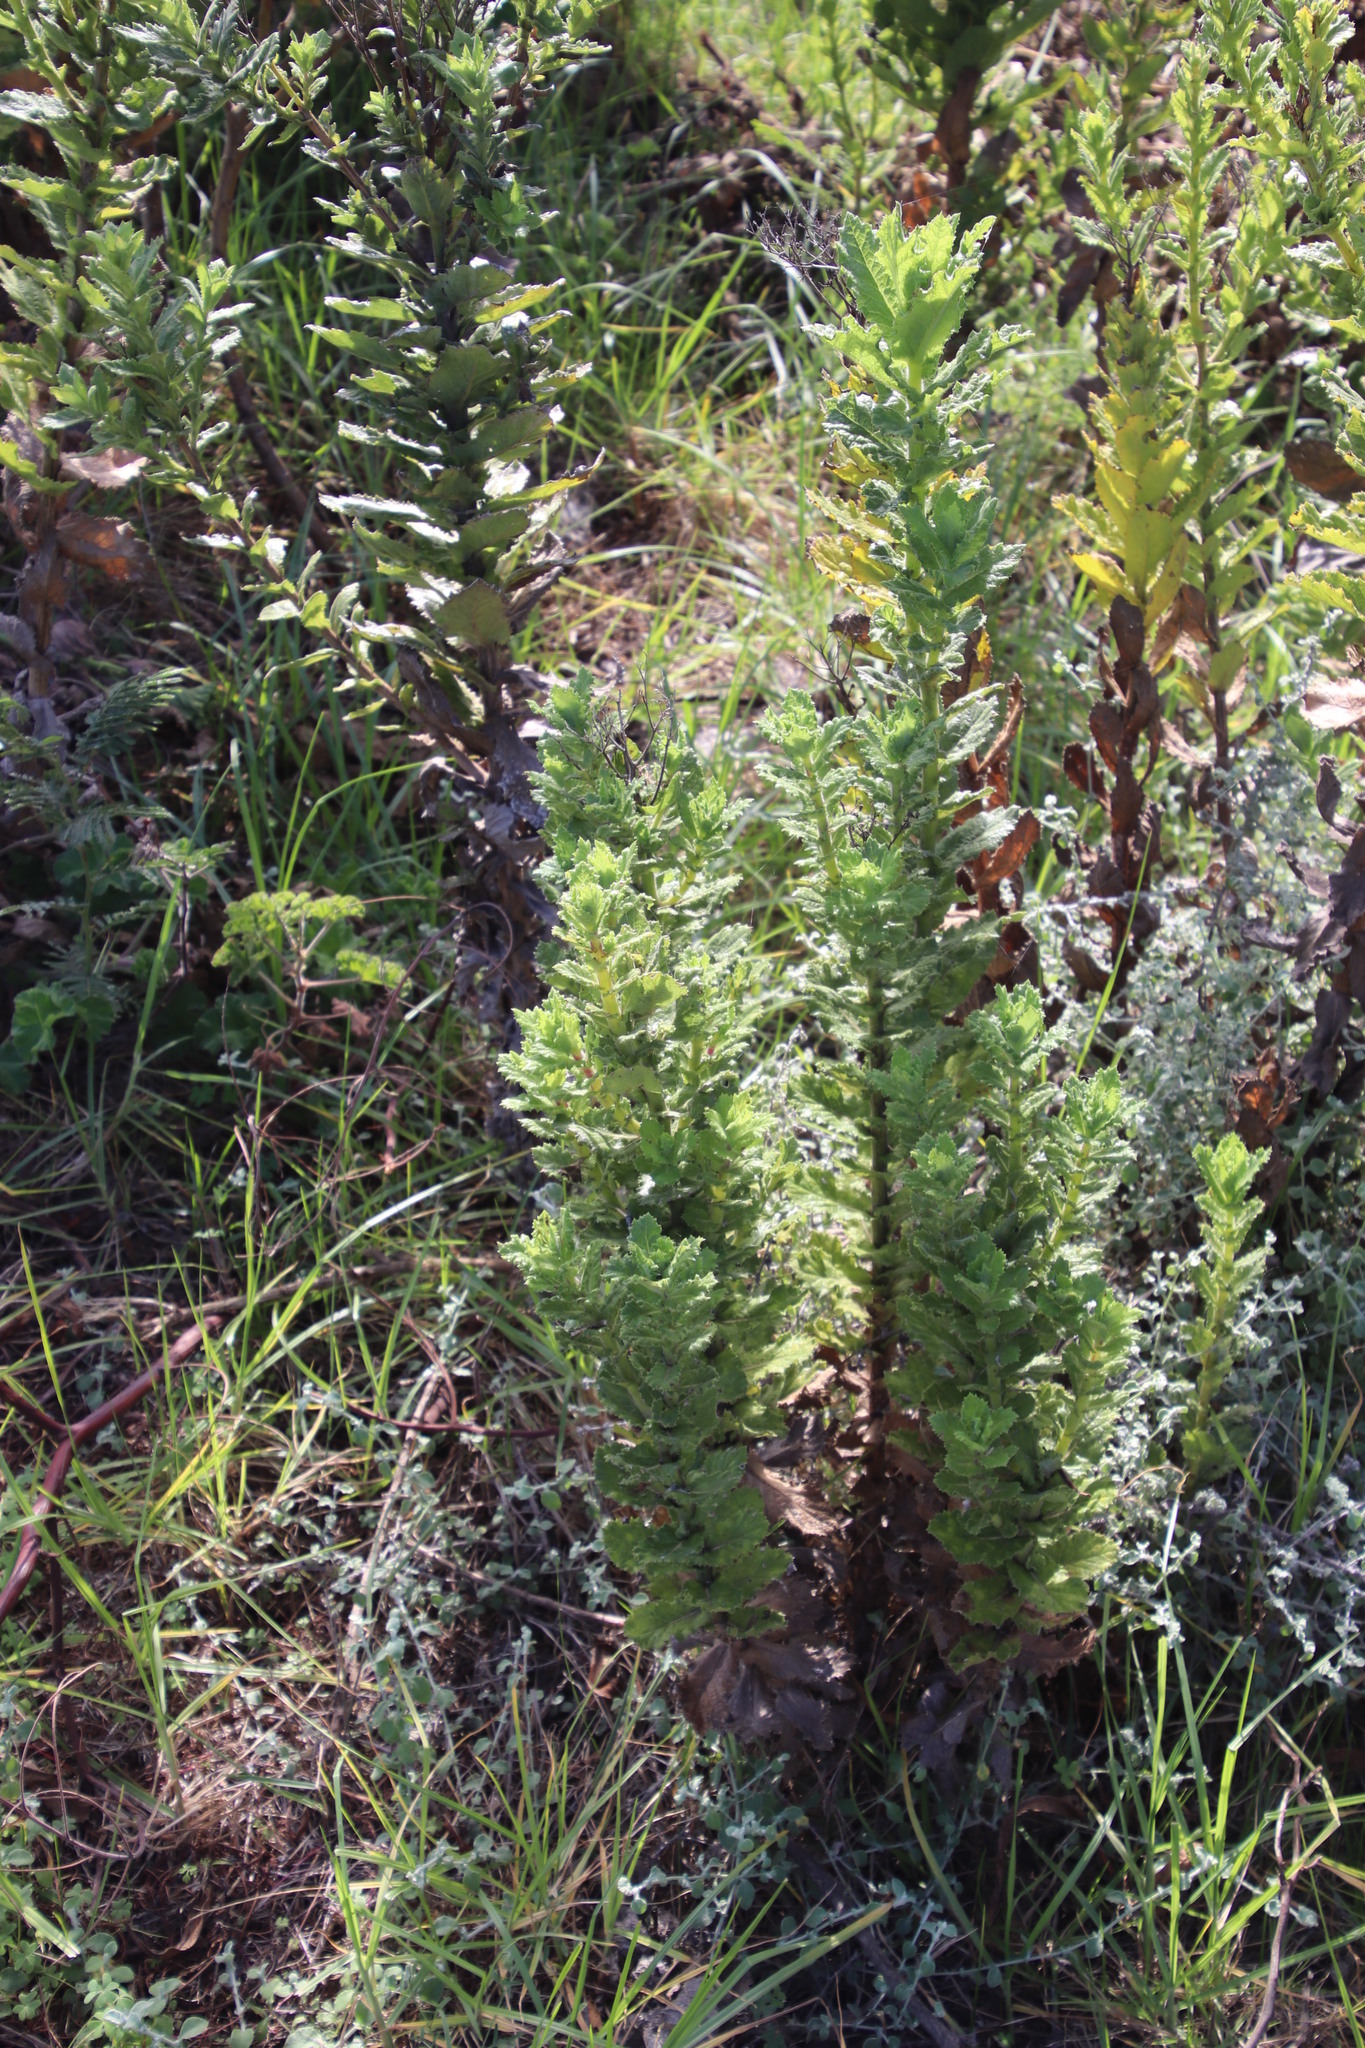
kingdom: Plantae
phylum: Tracheophyta
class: Magnoliopsida
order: Asterales
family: Asteraceae
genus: Senecio
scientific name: Senecio rigidus
